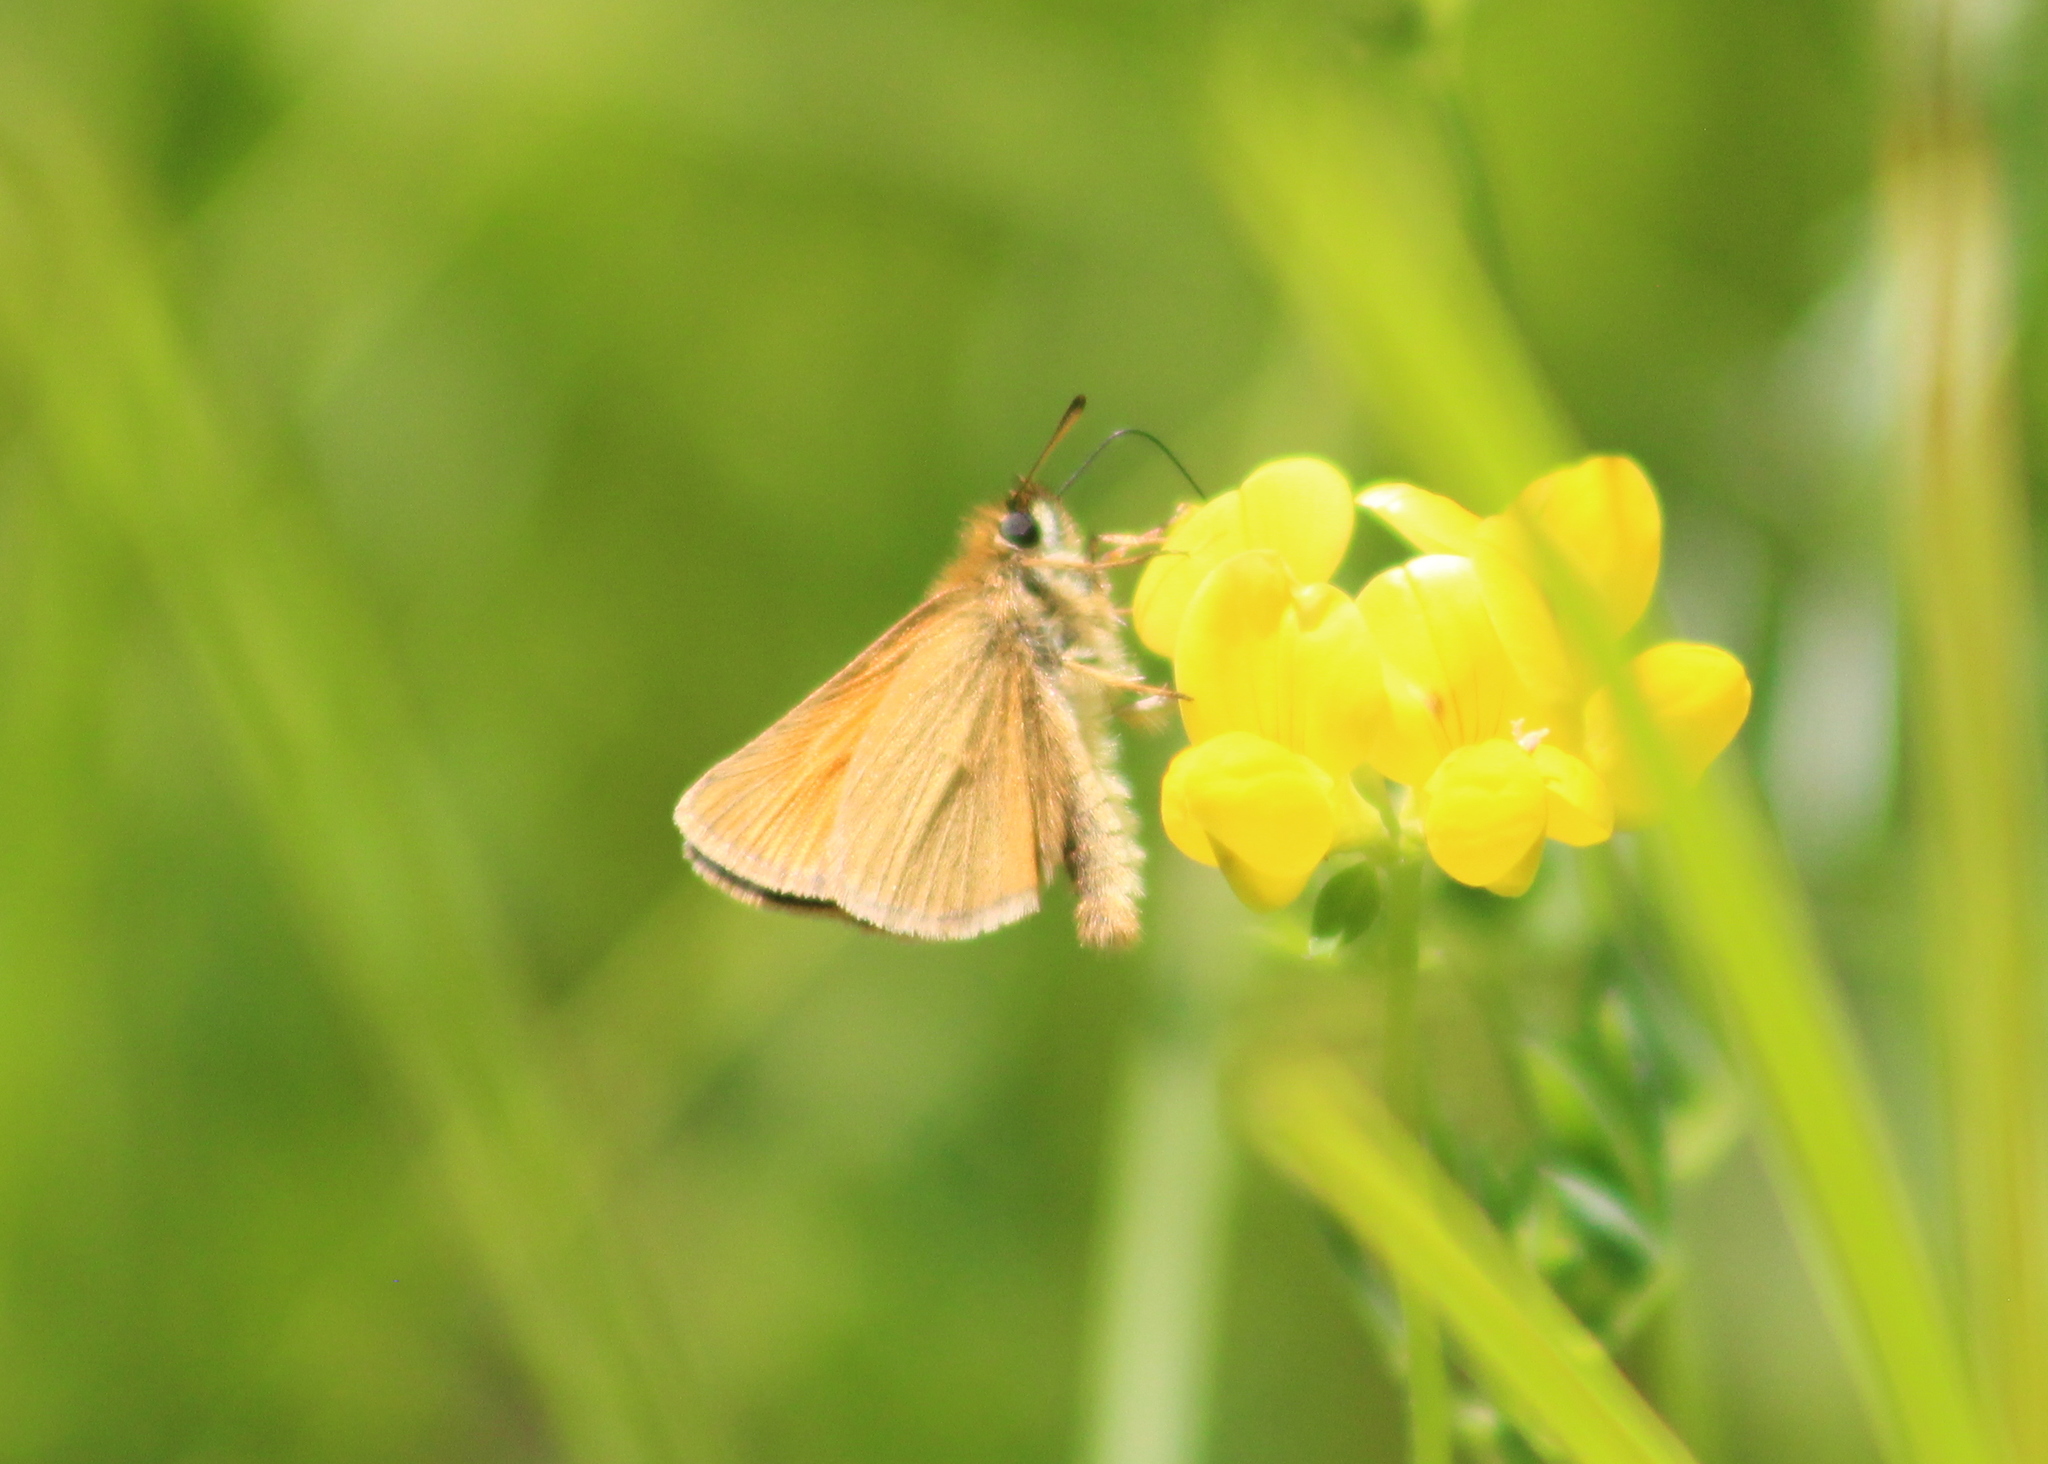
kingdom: Animalia
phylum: Arthropoda
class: Insecta
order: Lepidoptera
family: Hesperiidae
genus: Thymelicus
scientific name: Thymelicus lineola
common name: Essex skipper
